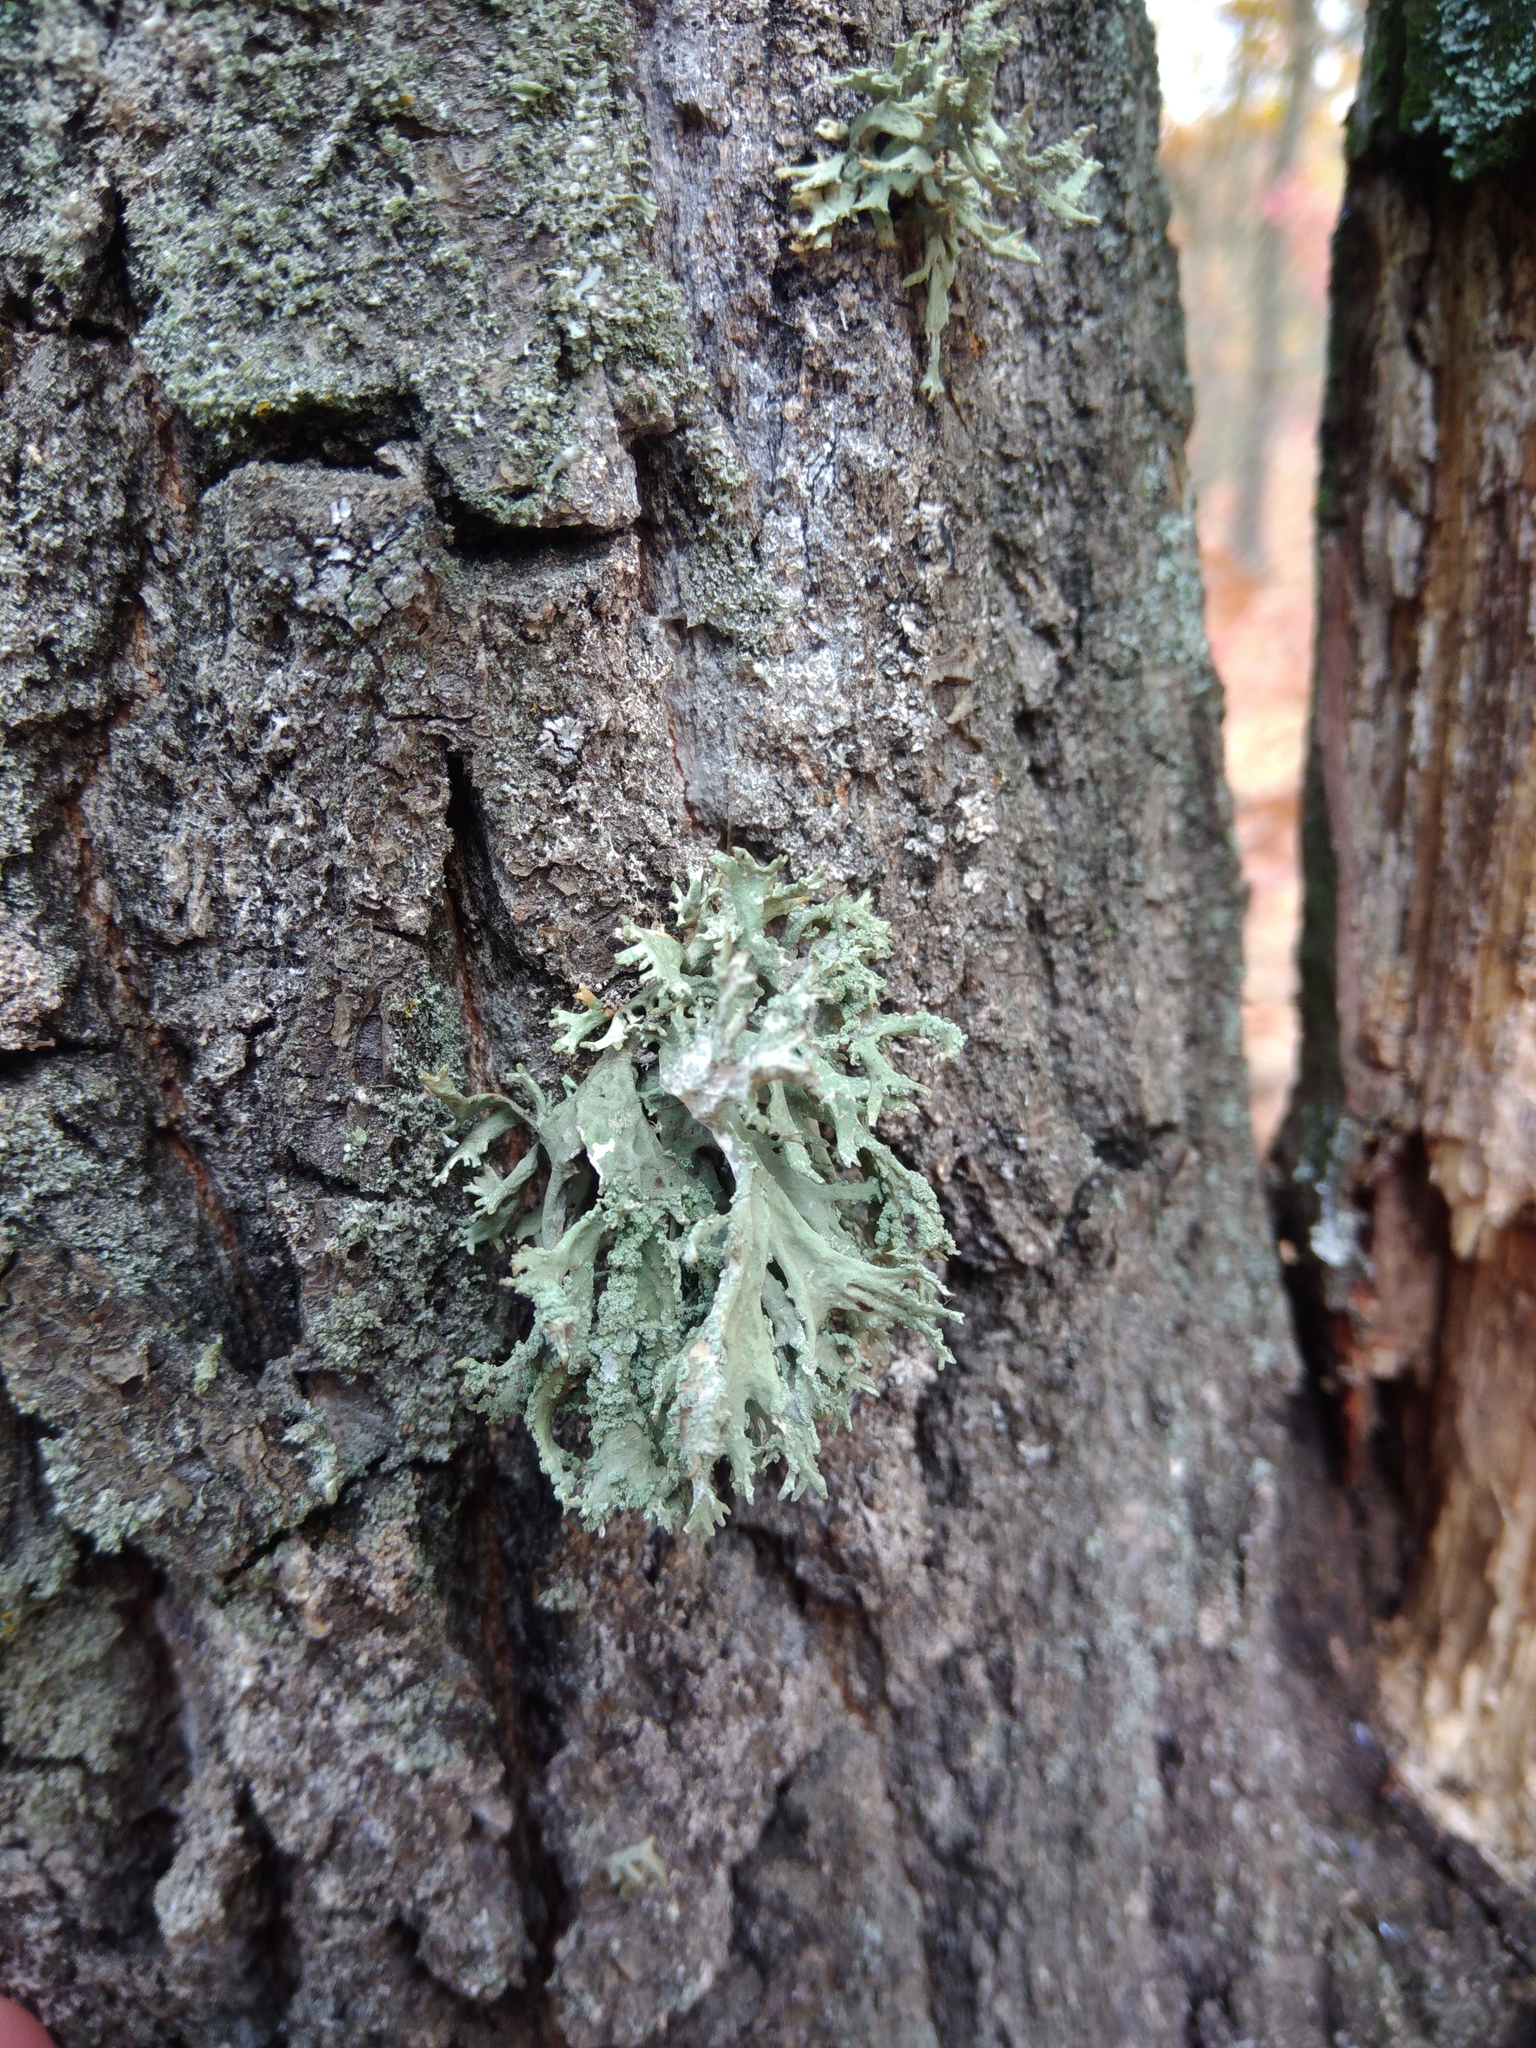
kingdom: Fungi
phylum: Ascomycota
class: Lecanoromycetes
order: Lecanorales
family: Parmeliaceae
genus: Evernia
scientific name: Evernia prunastri
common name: Oak moss
